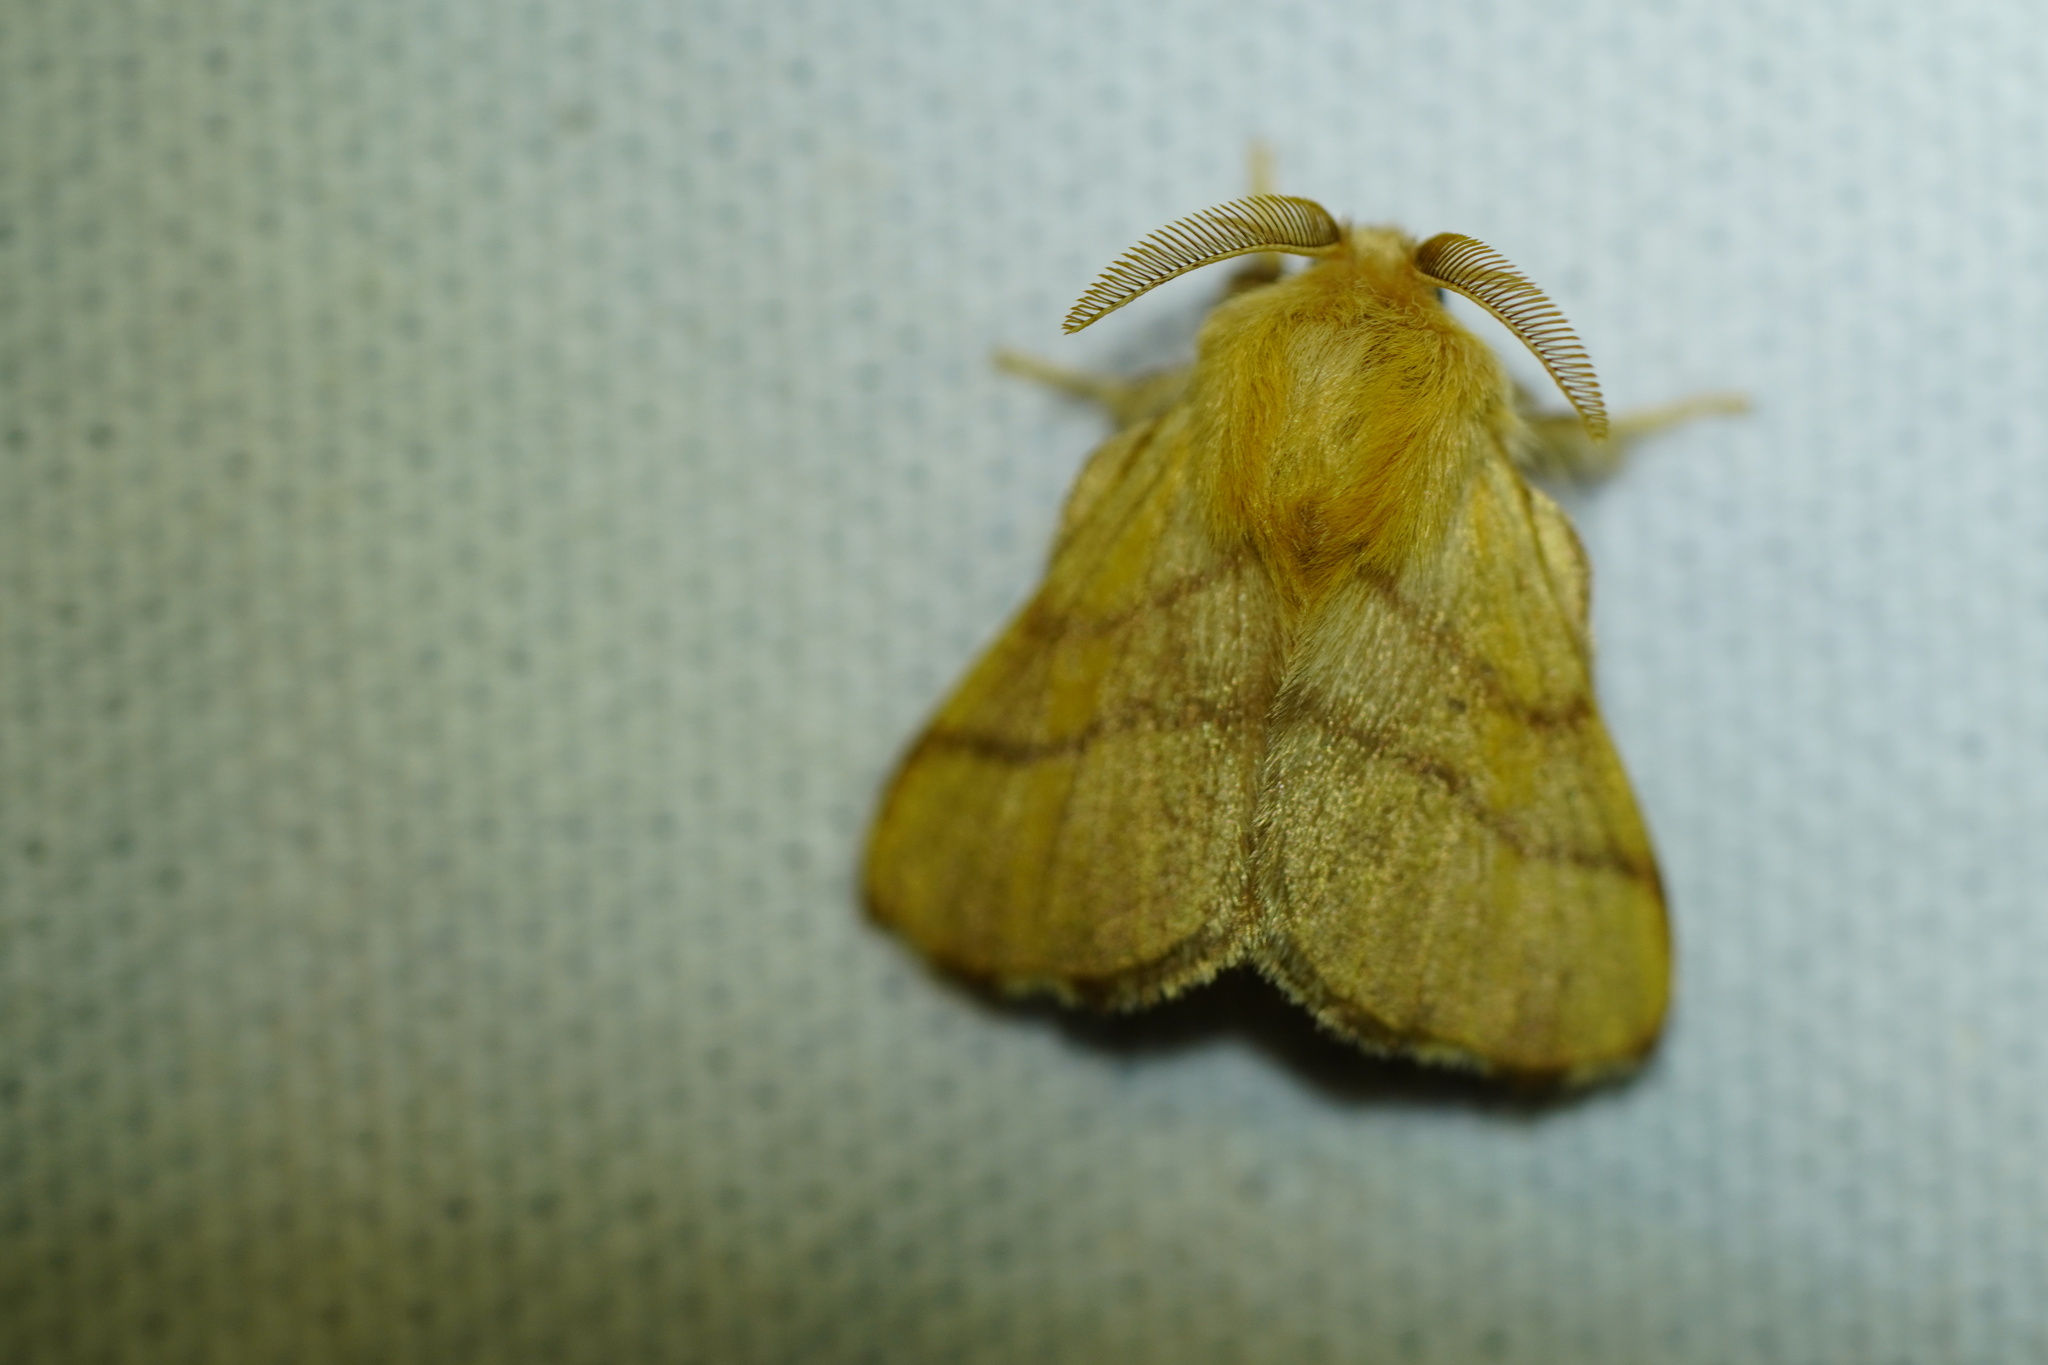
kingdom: Animalia
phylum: Arthropoda
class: Insecta
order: Lepidoptera
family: Lasiocampidae
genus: Malacosoma
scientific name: Malacosoma disstria
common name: Forest tent caterpillar
